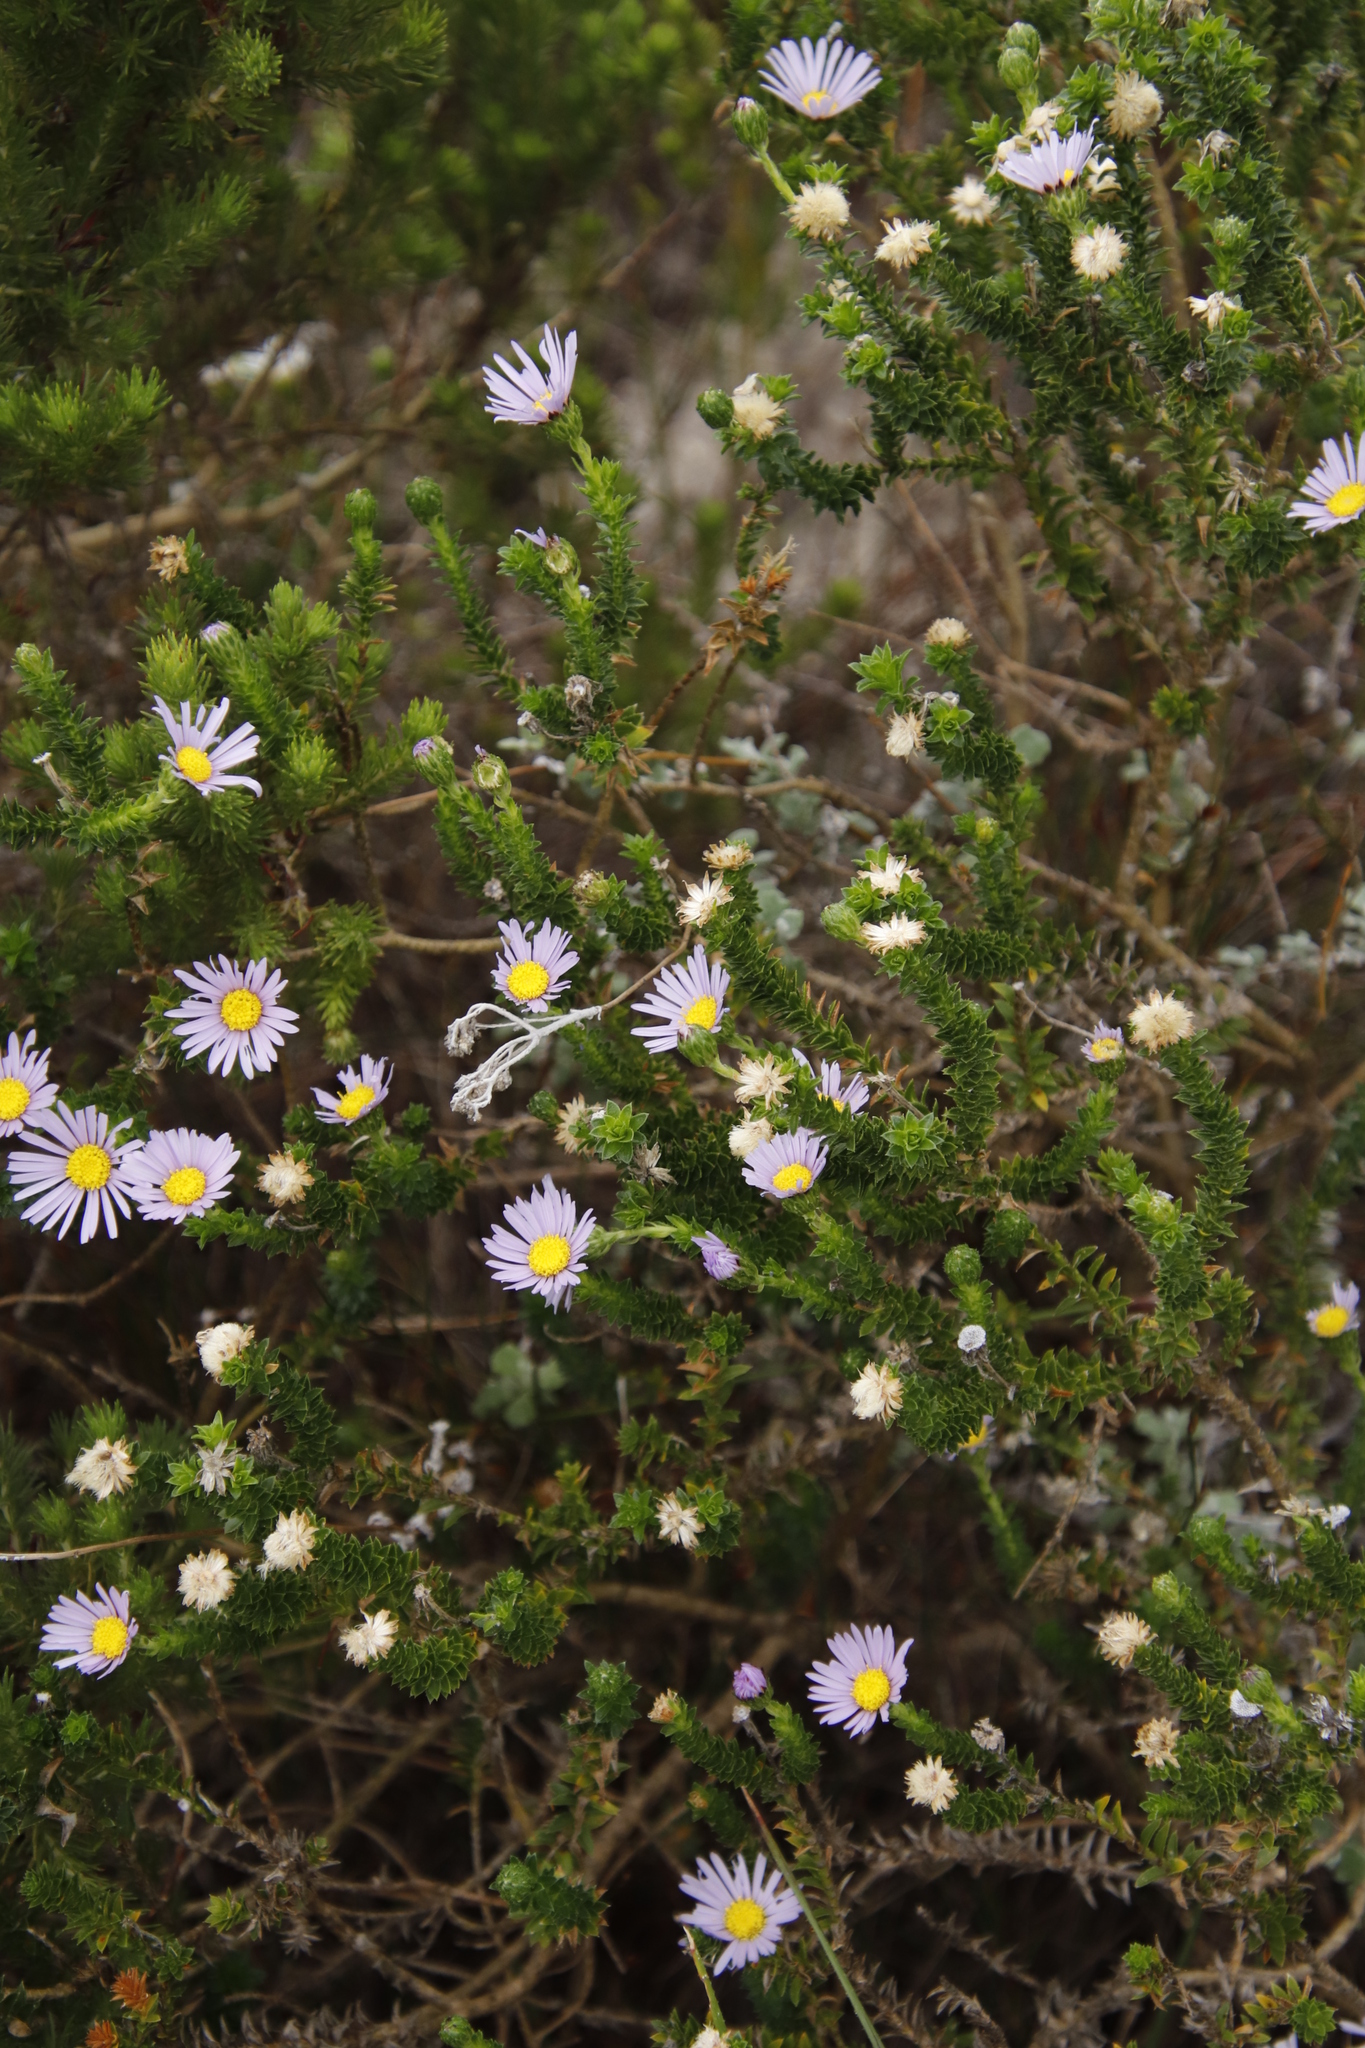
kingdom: Plantae
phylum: Tracheophyta
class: Magnoliopsida
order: Asterales
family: Asteraceae
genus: Felicia
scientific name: Felicia echinata
